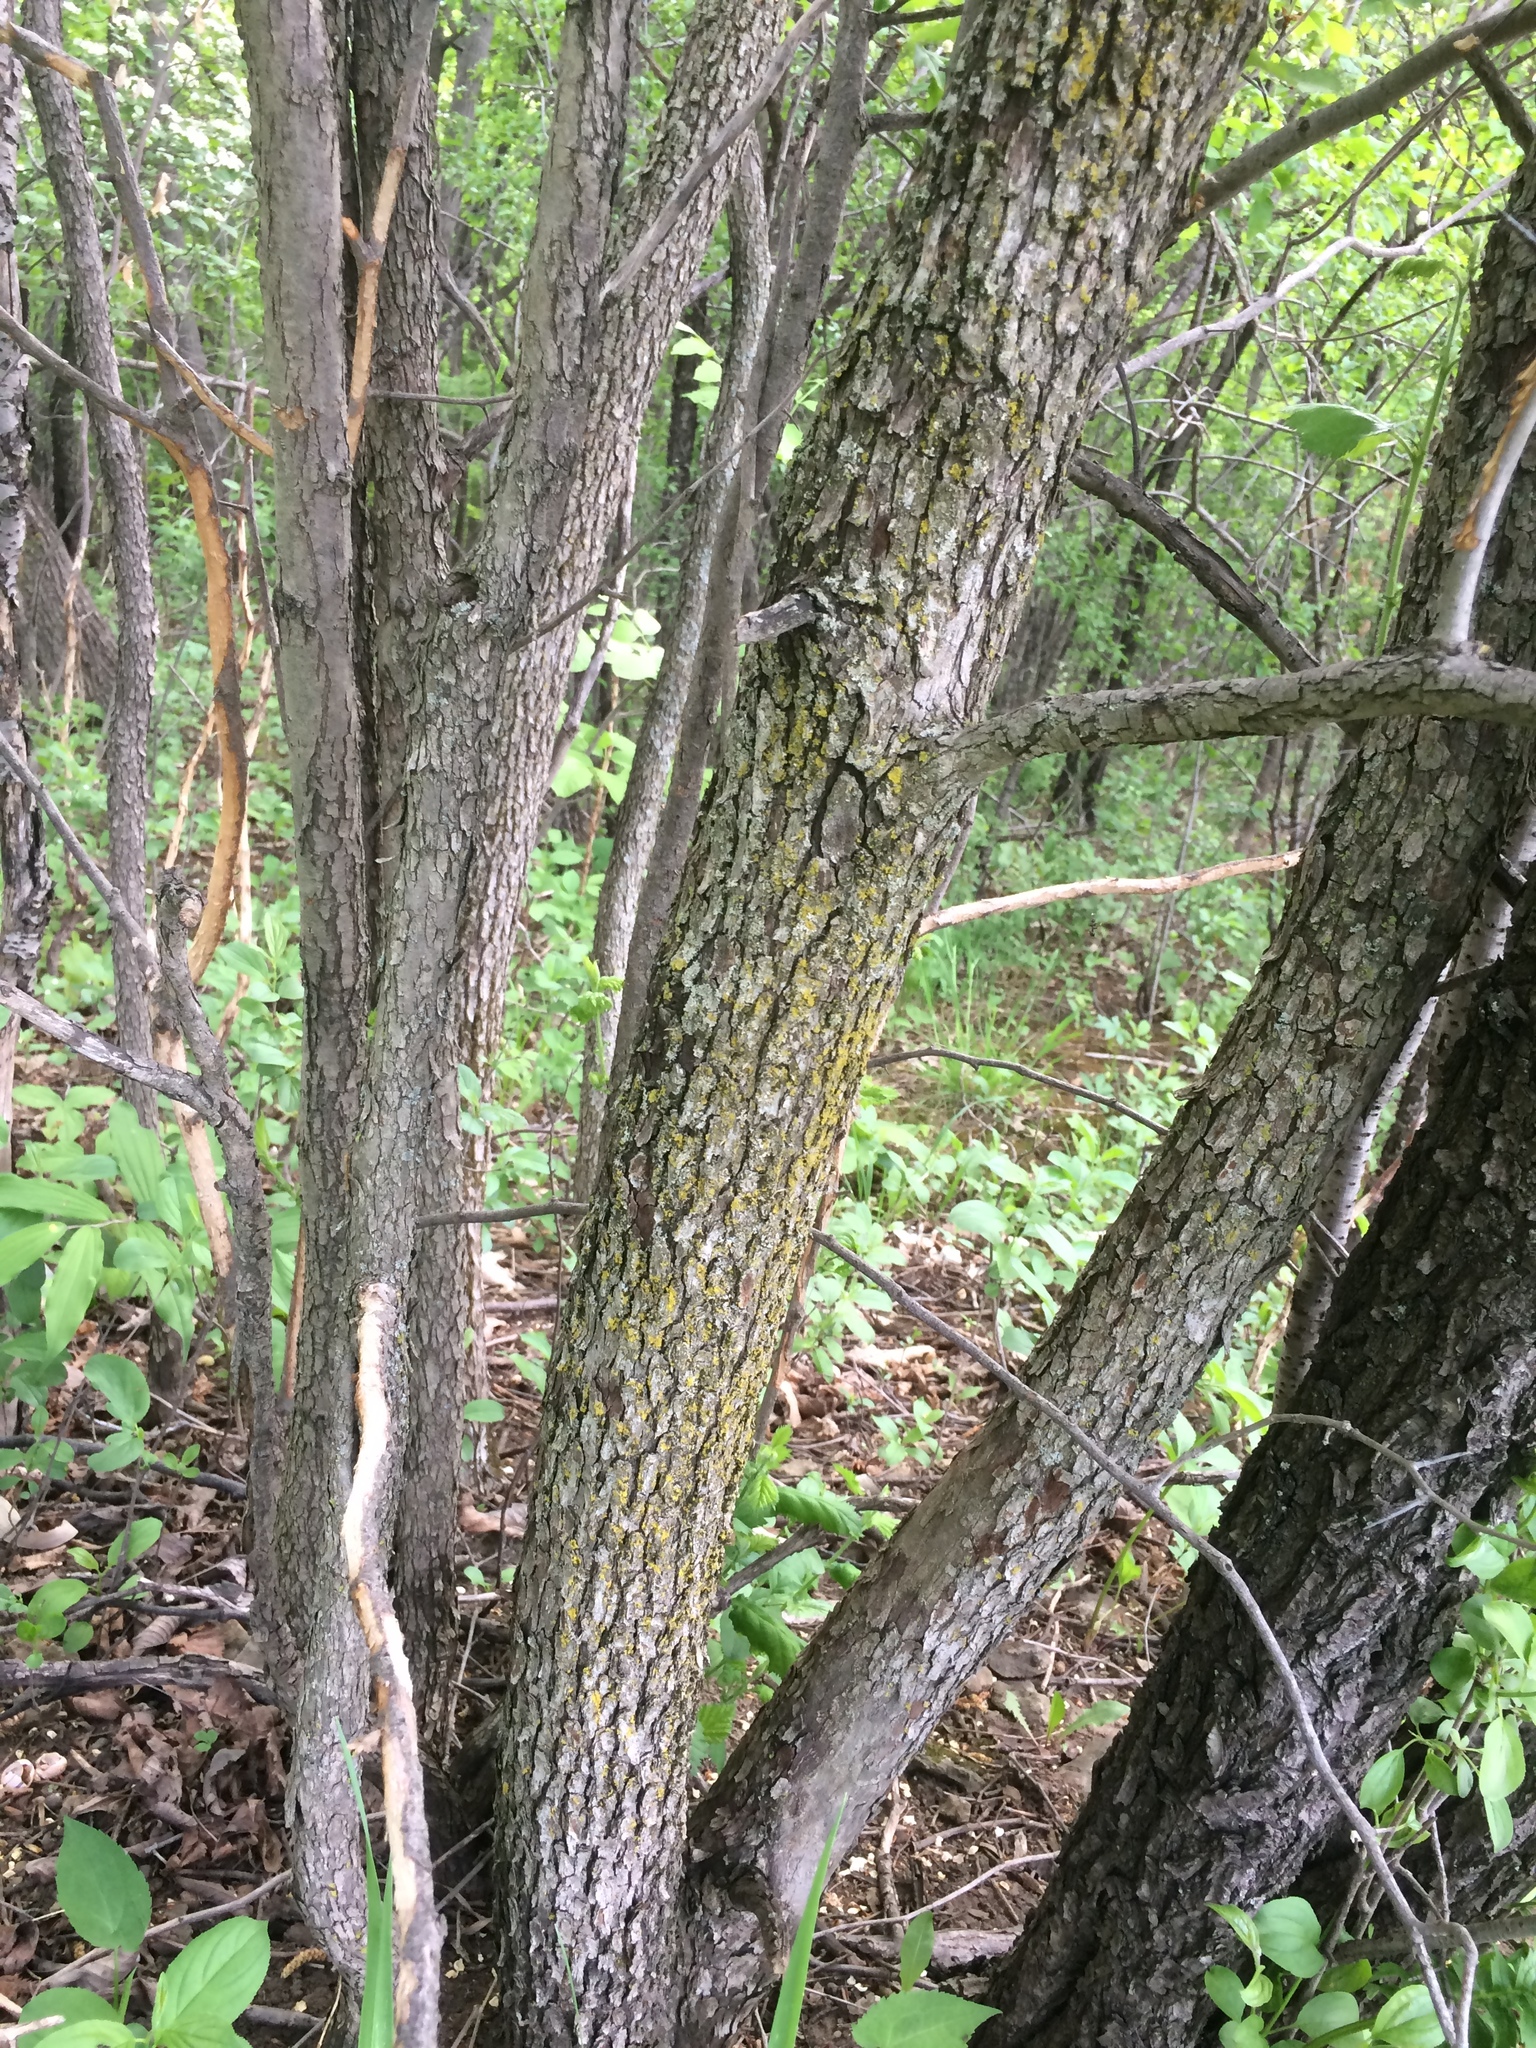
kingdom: Plantae
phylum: Tracheophyta
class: Magnoliopsida
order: Rosales
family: Rosaceae
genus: Crataegus
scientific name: Crataegus submollis
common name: Hairy cockspurthorn
